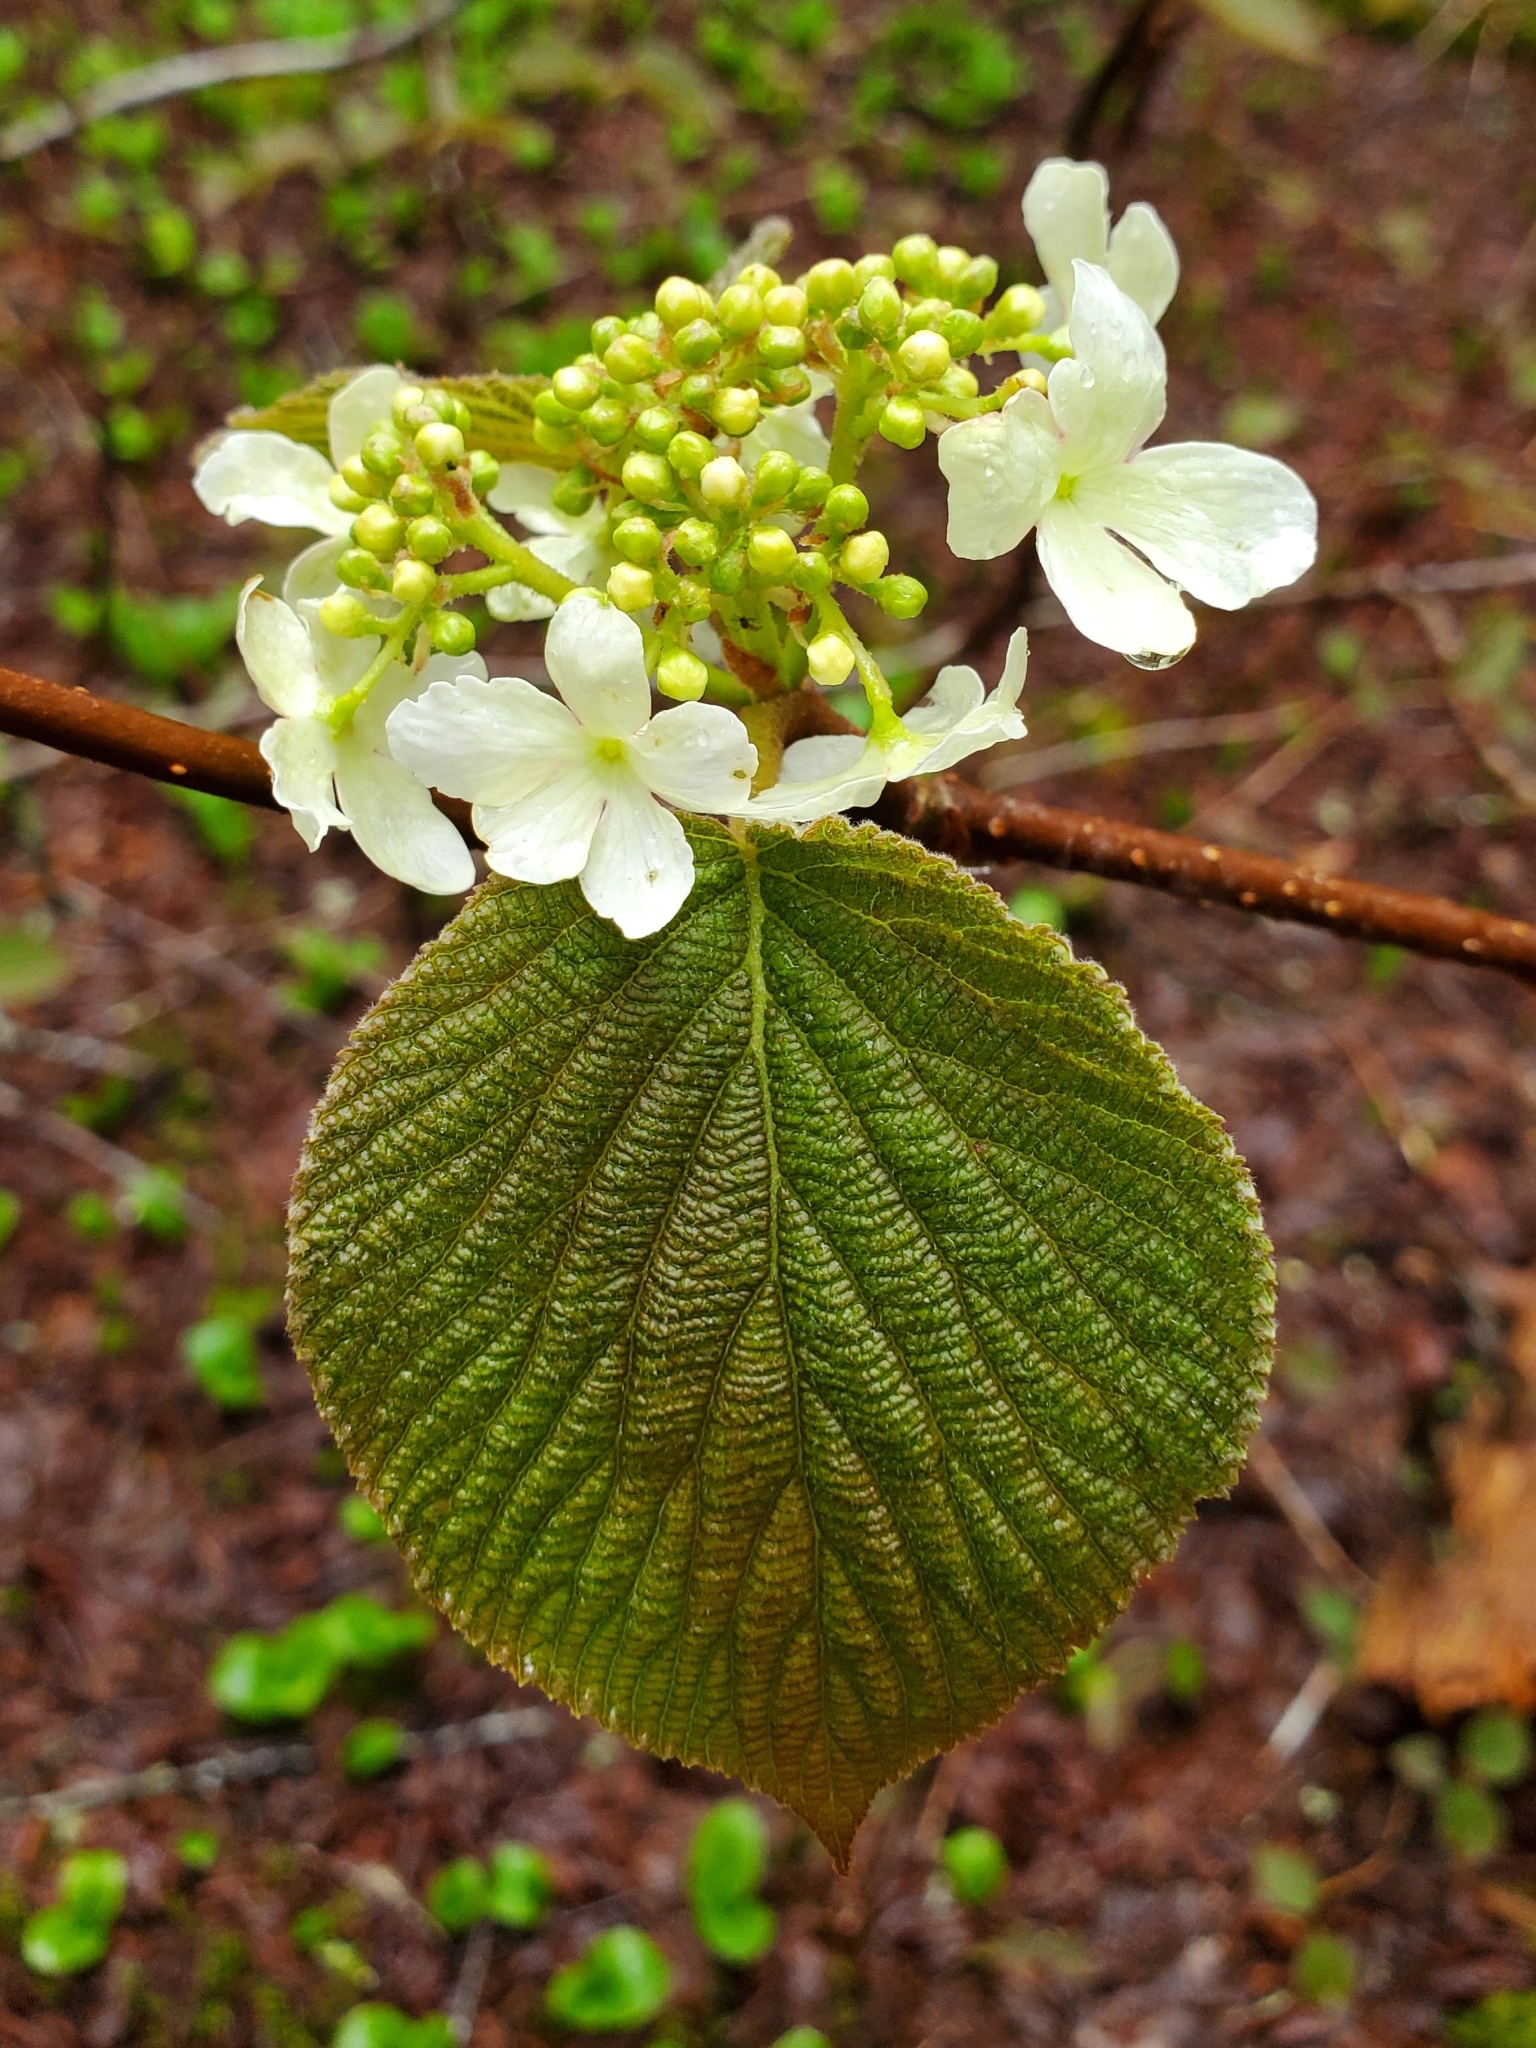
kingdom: Plantae
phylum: Tracheophyta
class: Magnoliopsida
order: Dipsacales
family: Viburnaceae
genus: Viburnum
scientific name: Viburnum lantanoides
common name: Hobblebush
